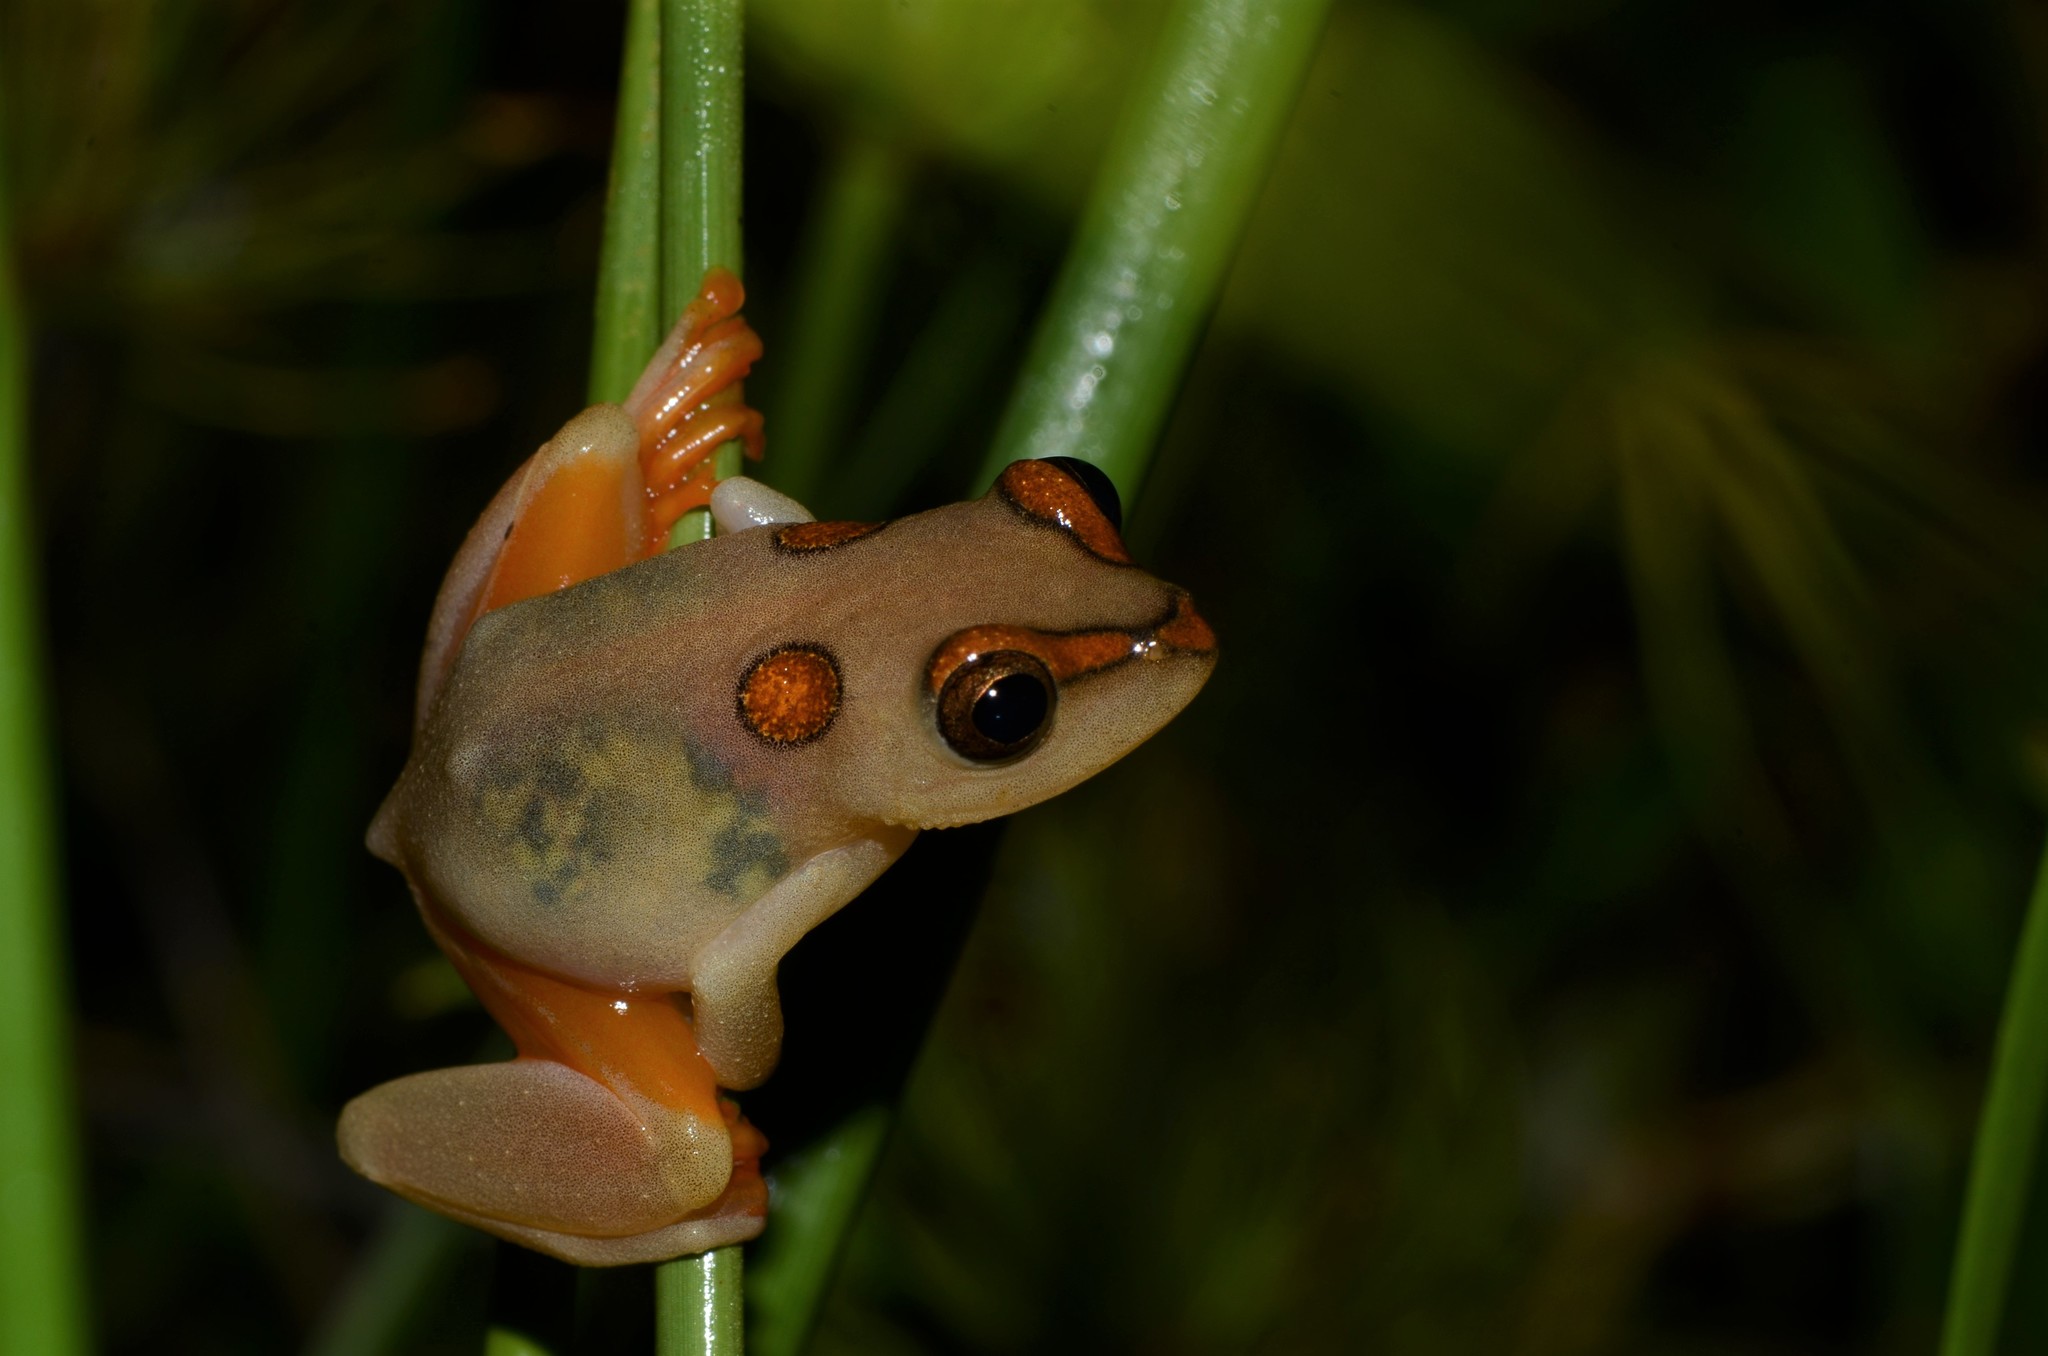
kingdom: Animalia
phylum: Chordata
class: Amphibia
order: Anura
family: Hyperoliidae
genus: Hyperolius
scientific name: Hyperolius argus
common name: Argus reed frog
